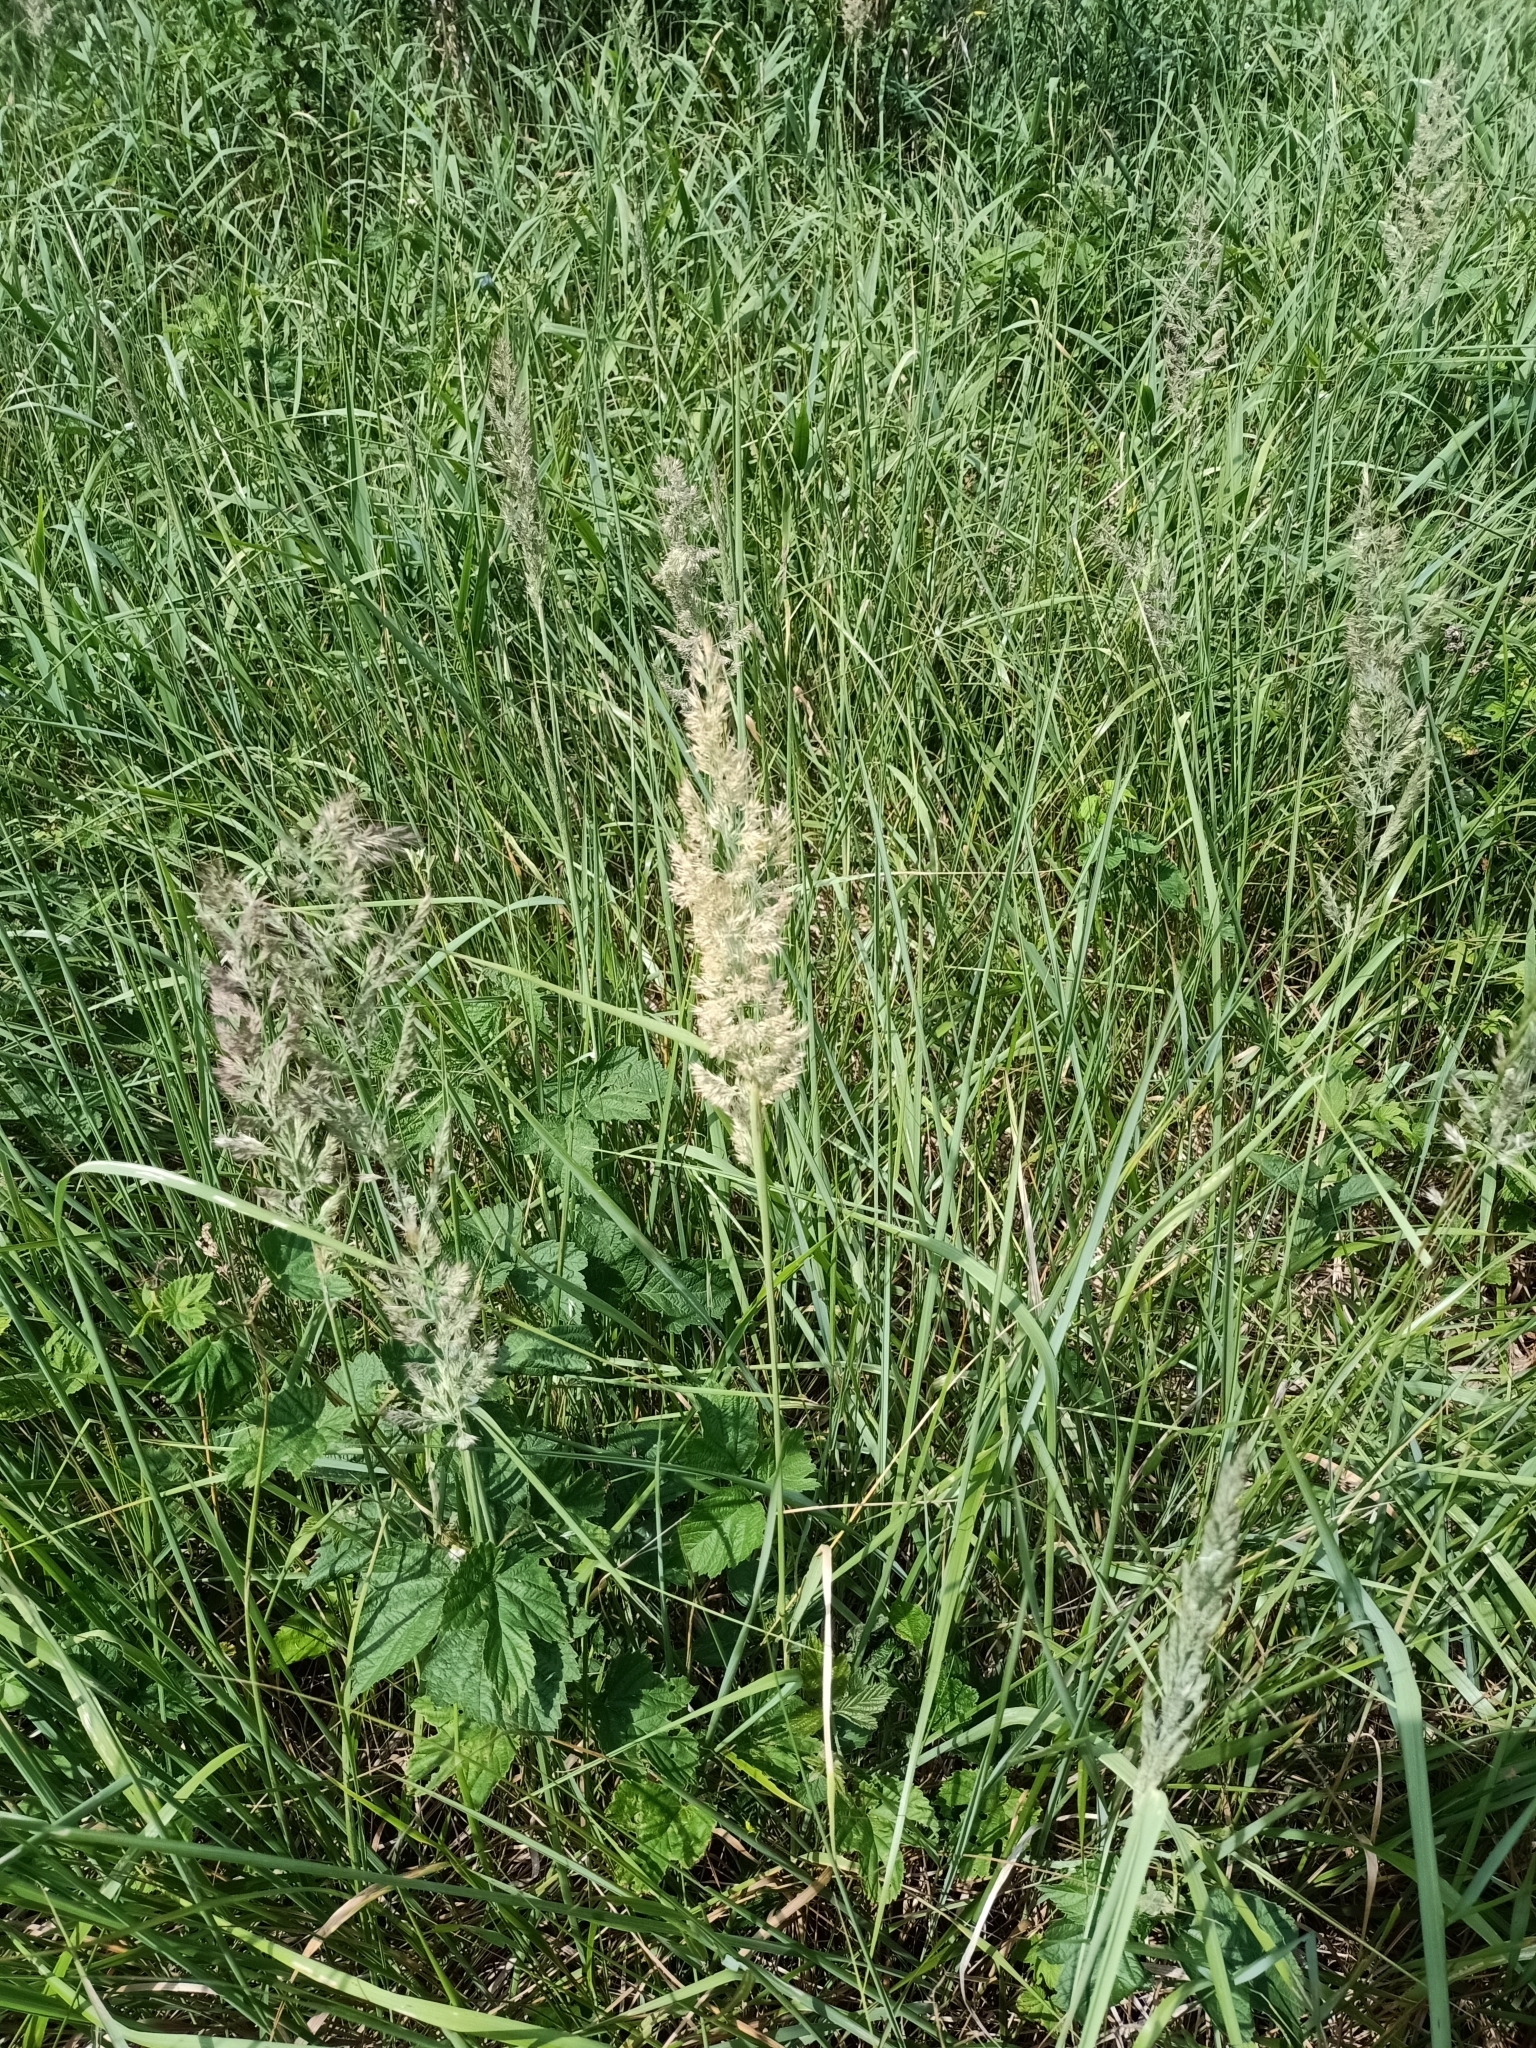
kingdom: Plantae
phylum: Tracheophyta
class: Liliopsida
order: Poales
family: Poaceae
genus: Calamagrostis
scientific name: Calamagrostis epigejos
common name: Wood small-reed
